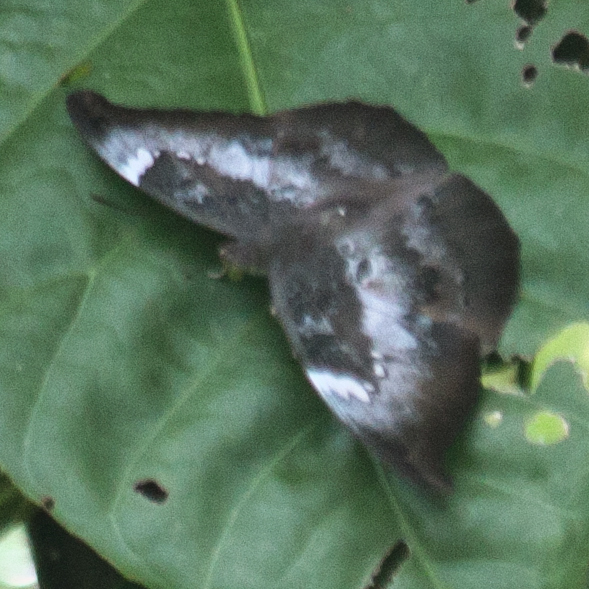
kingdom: Animalia
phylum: Arthropoda
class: Insecta
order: Lepidoptera
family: Nymphalidae
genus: Euthalia
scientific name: Euthalia anosia
